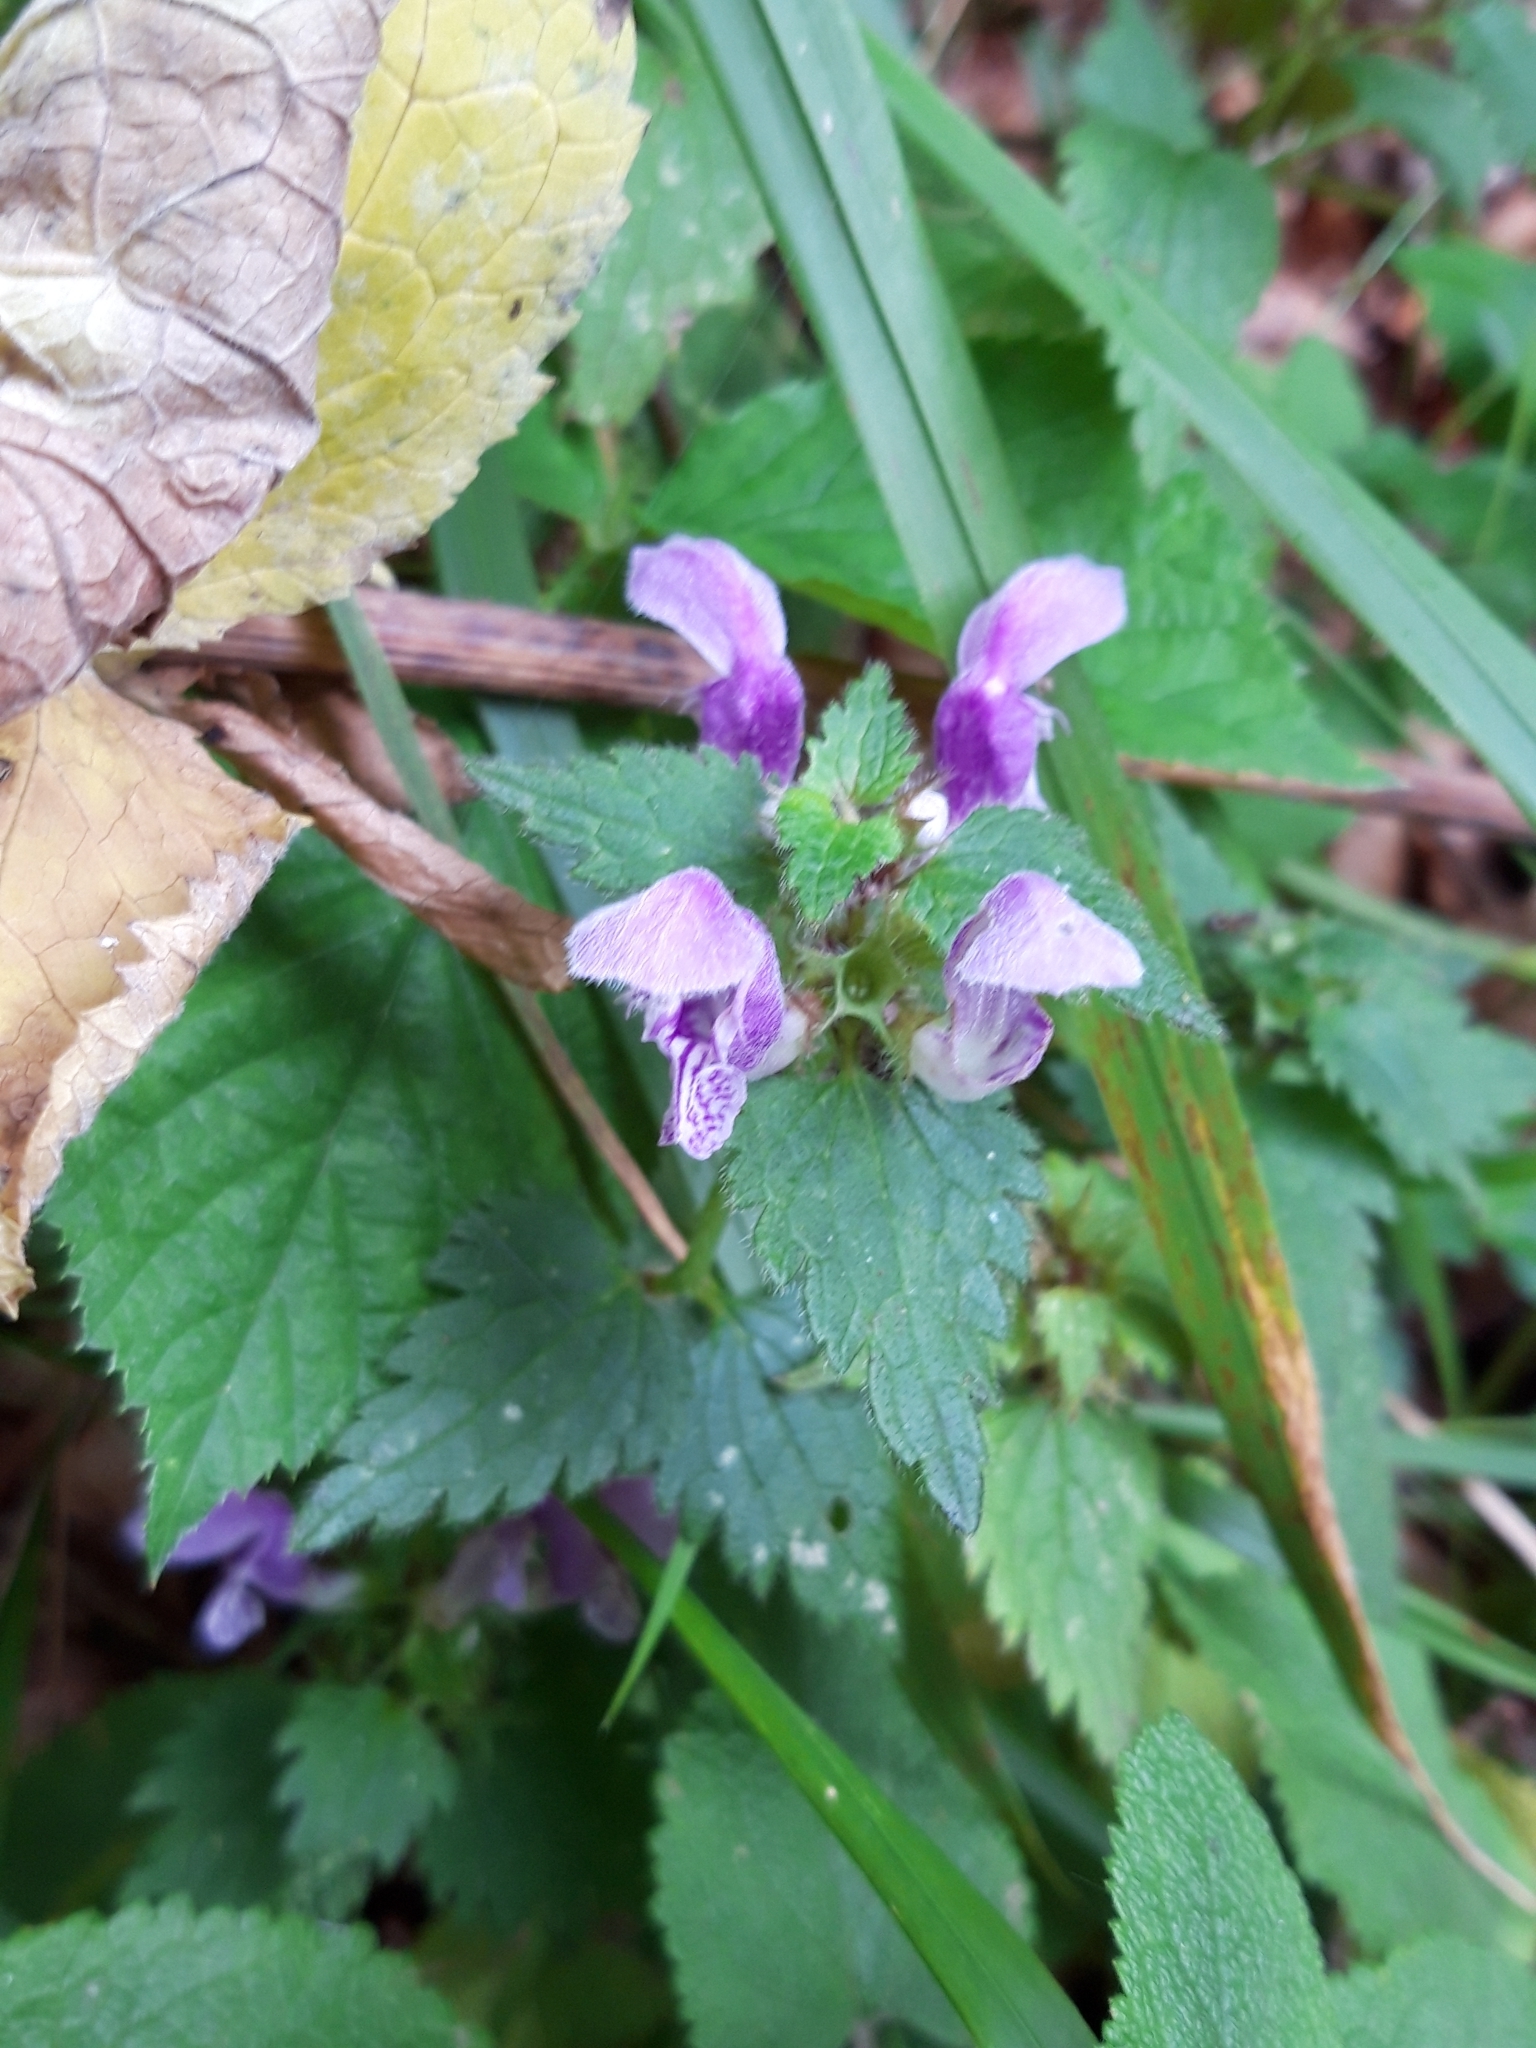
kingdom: Plantae
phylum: Tracheophyta
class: Magnoliopsida
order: Lamiales
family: Lamiaceae
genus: Lamium
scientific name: Lamium maculatum
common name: Spotted dead-nettle
